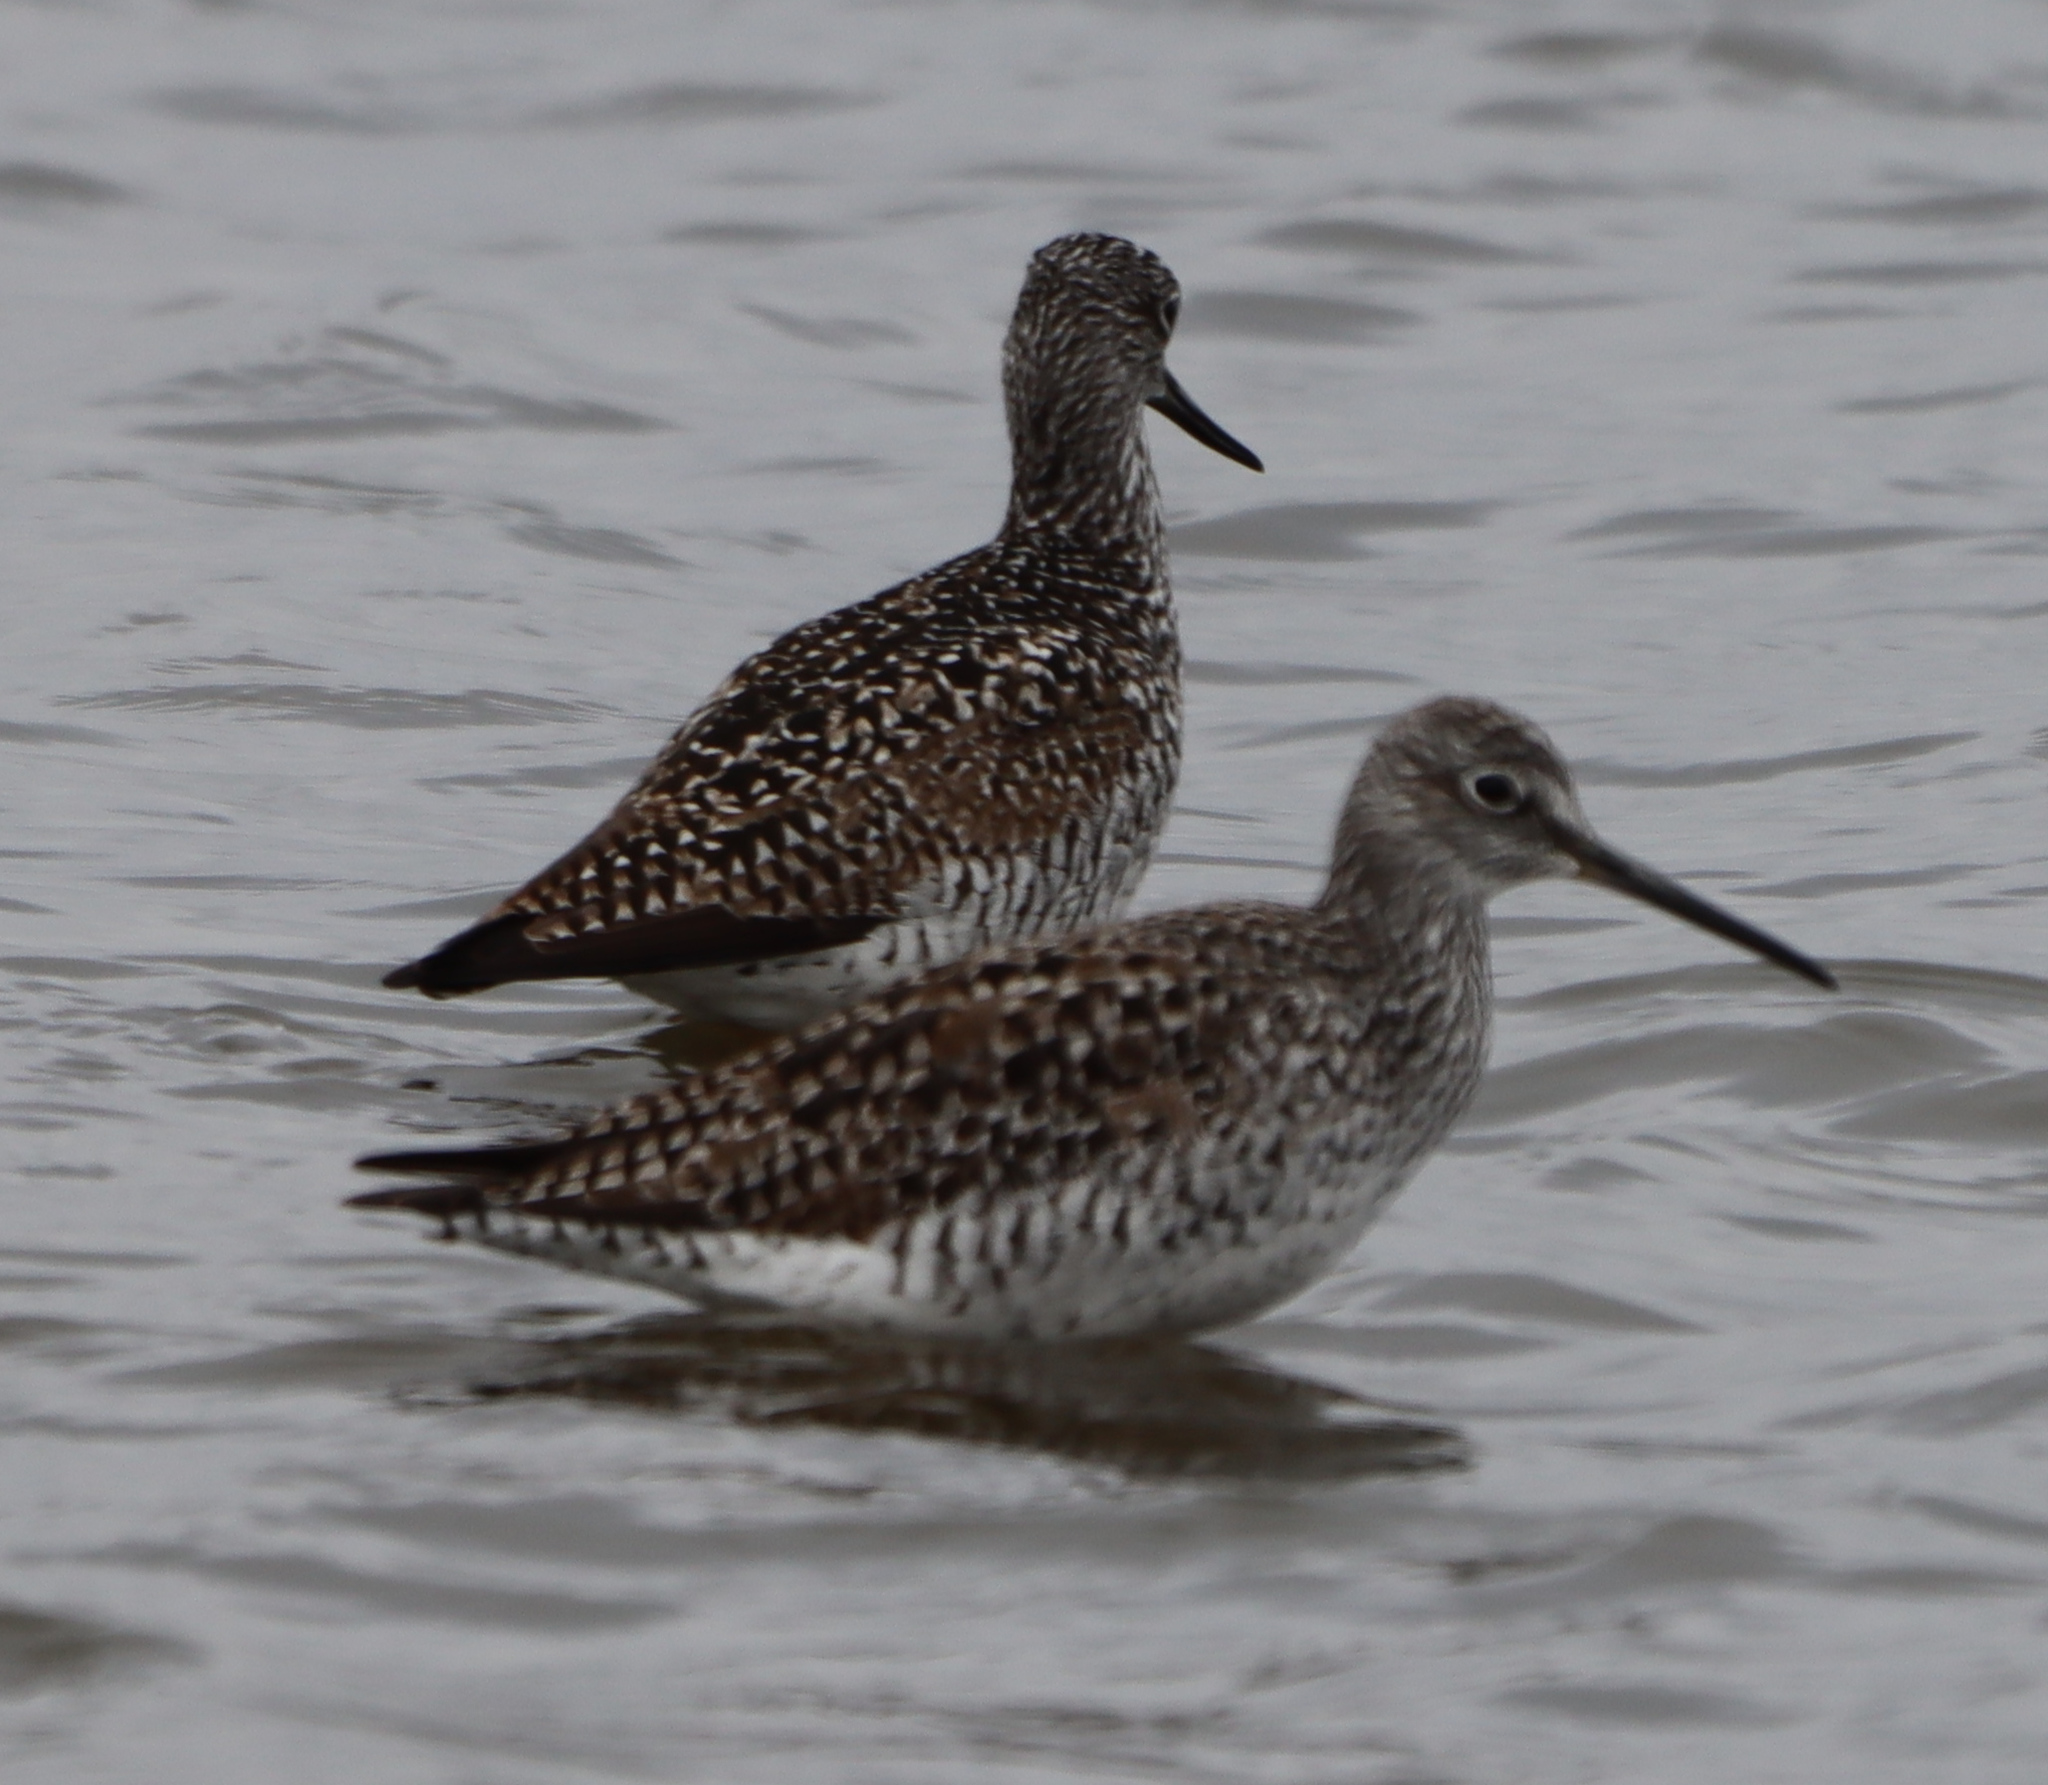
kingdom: Animalia
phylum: Chordata
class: Aves
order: Charadriiformes
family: Scolopacidae
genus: Tringa
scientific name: Tringa melanoleuca
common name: Greater yellowlegs
